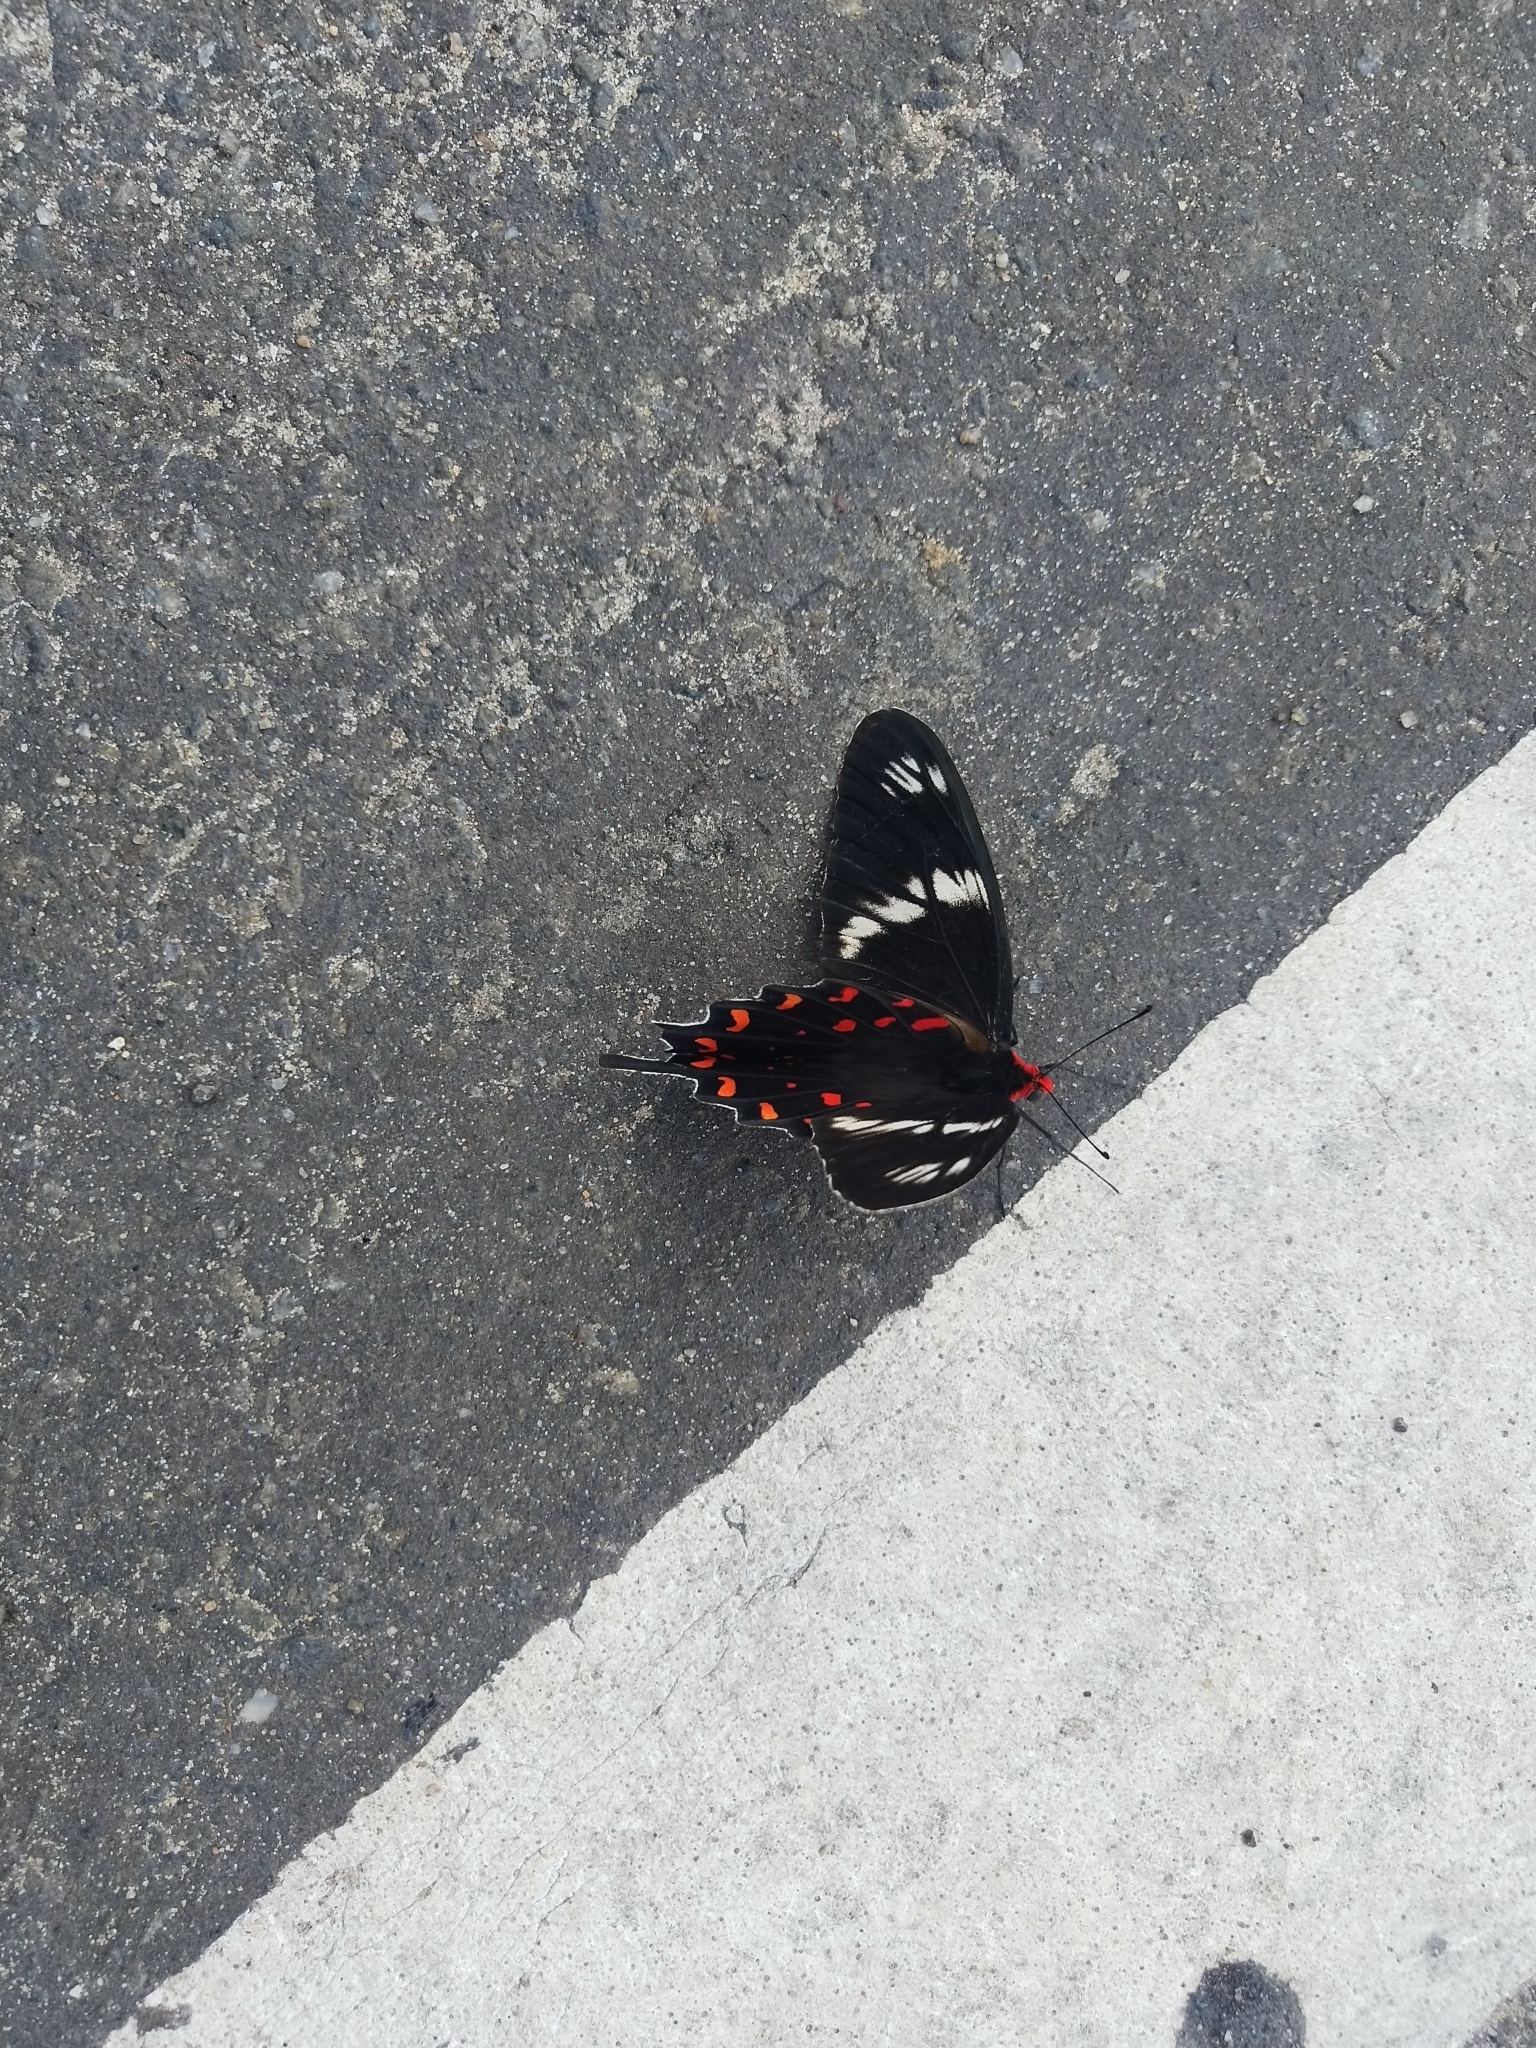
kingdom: Animalia
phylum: Arthropoda
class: Insecta
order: Lepidoptera
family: Papilionidae
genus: Pachliopta
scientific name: Pachliopta hector
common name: Crimson rose
